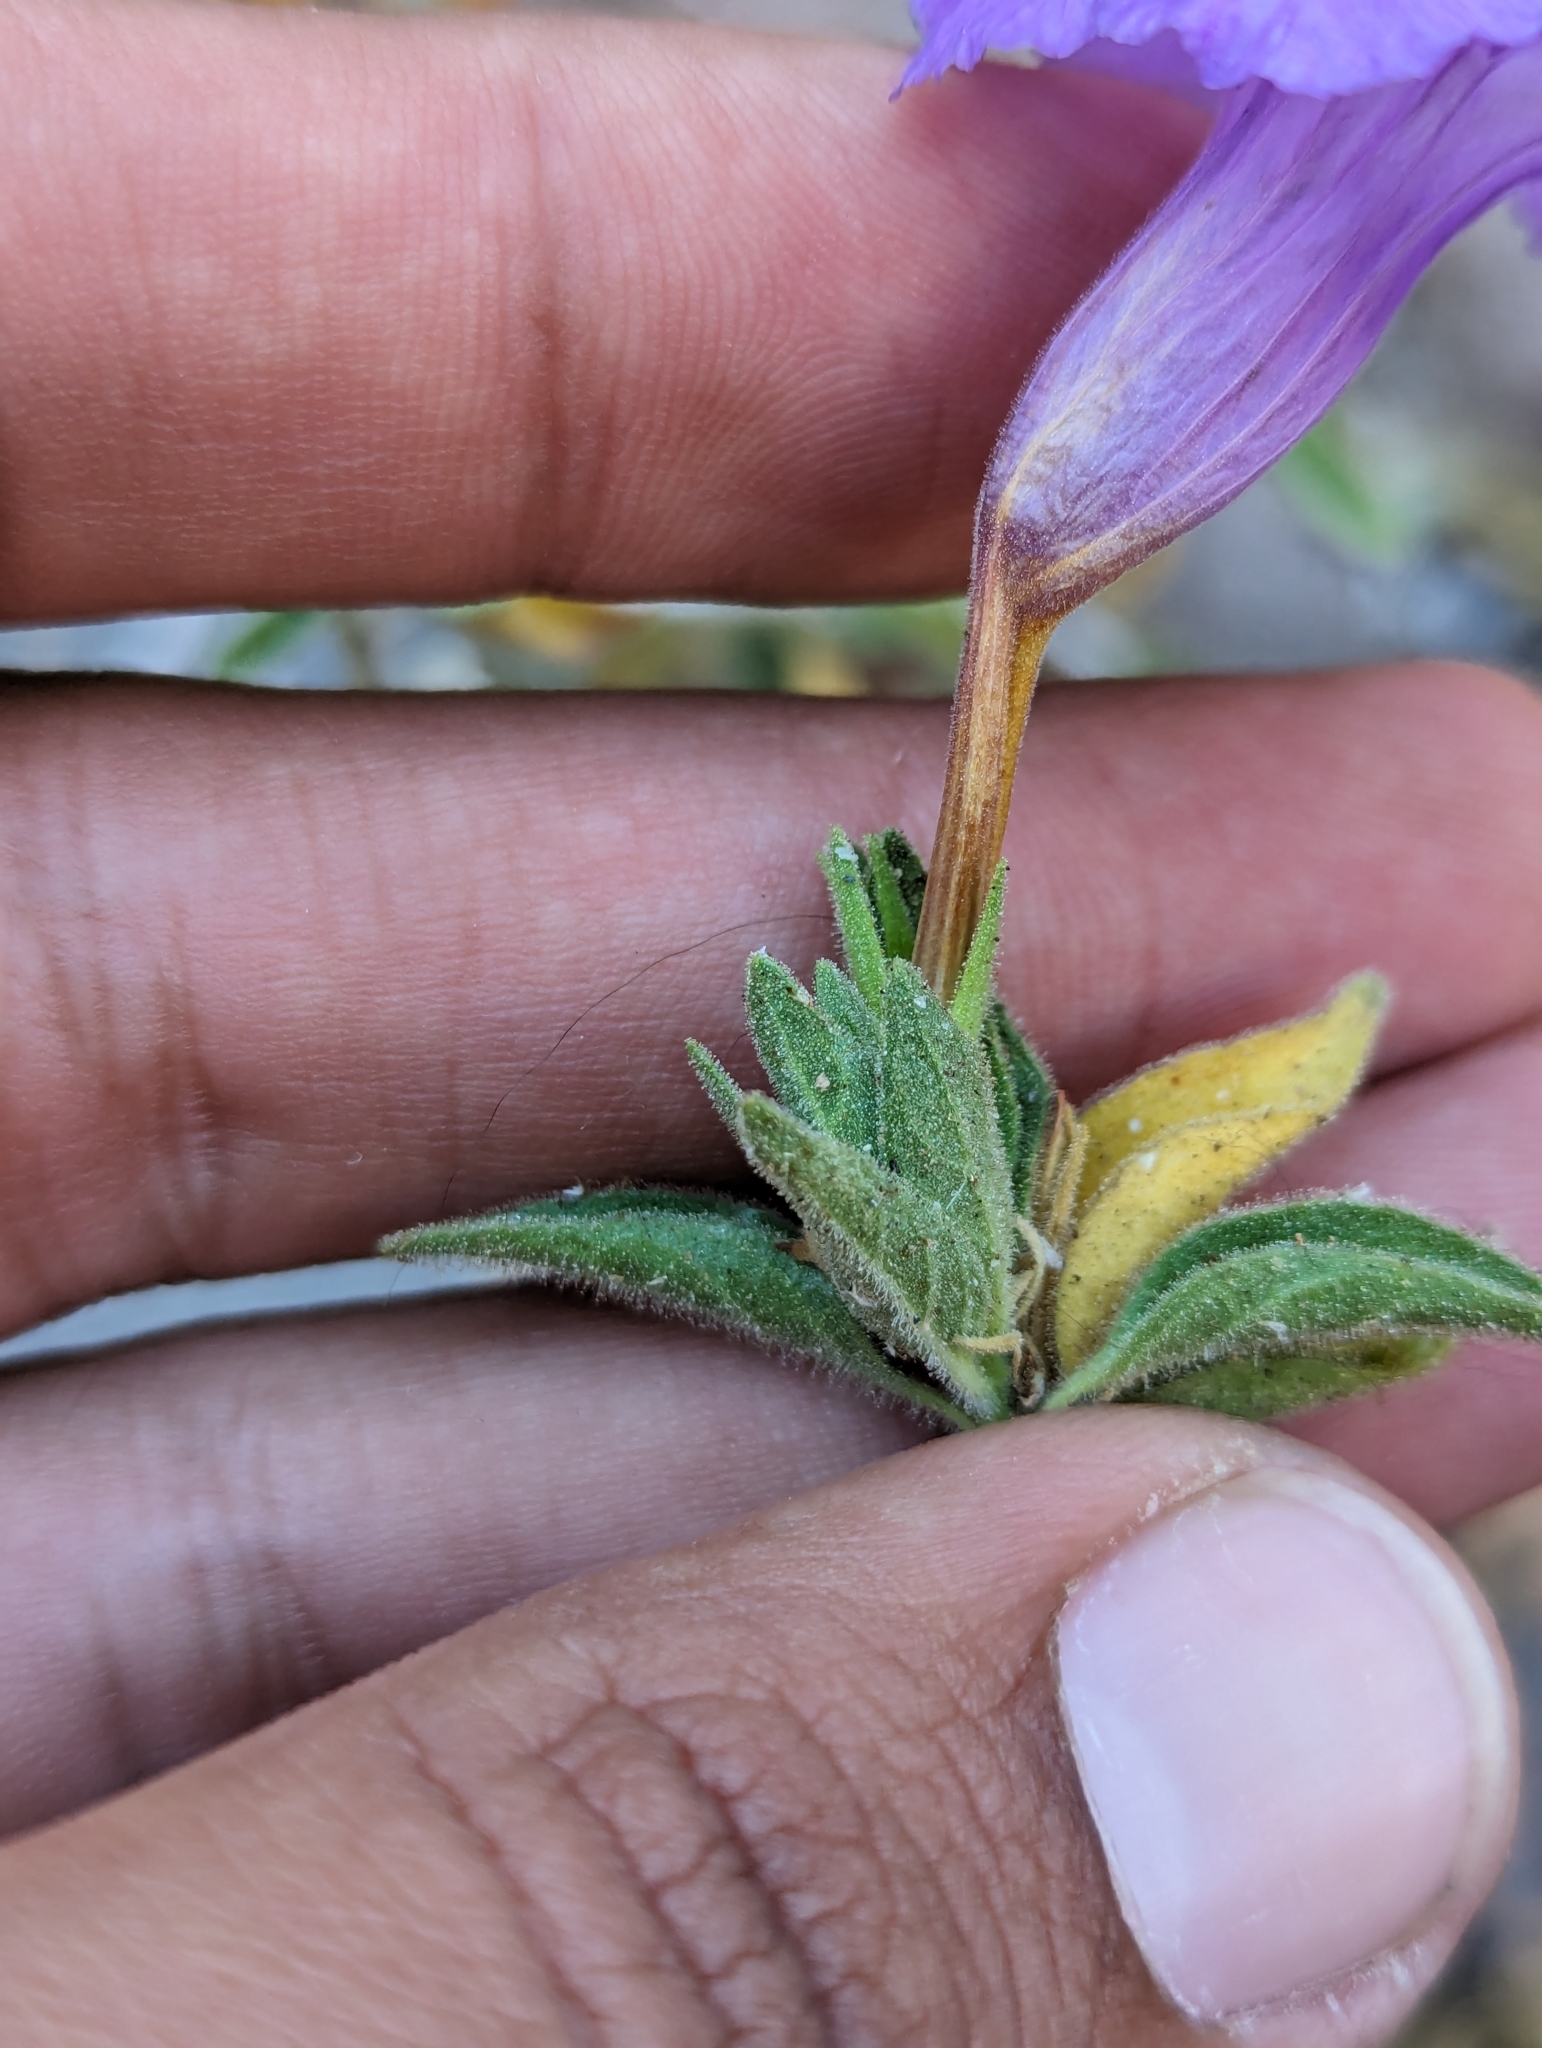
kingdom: Plantae
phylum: Tracheophyta
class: Magnoliopsida
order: Lamiales
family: Acanthaceae
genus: Ruellia
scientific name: Ruellia californica
